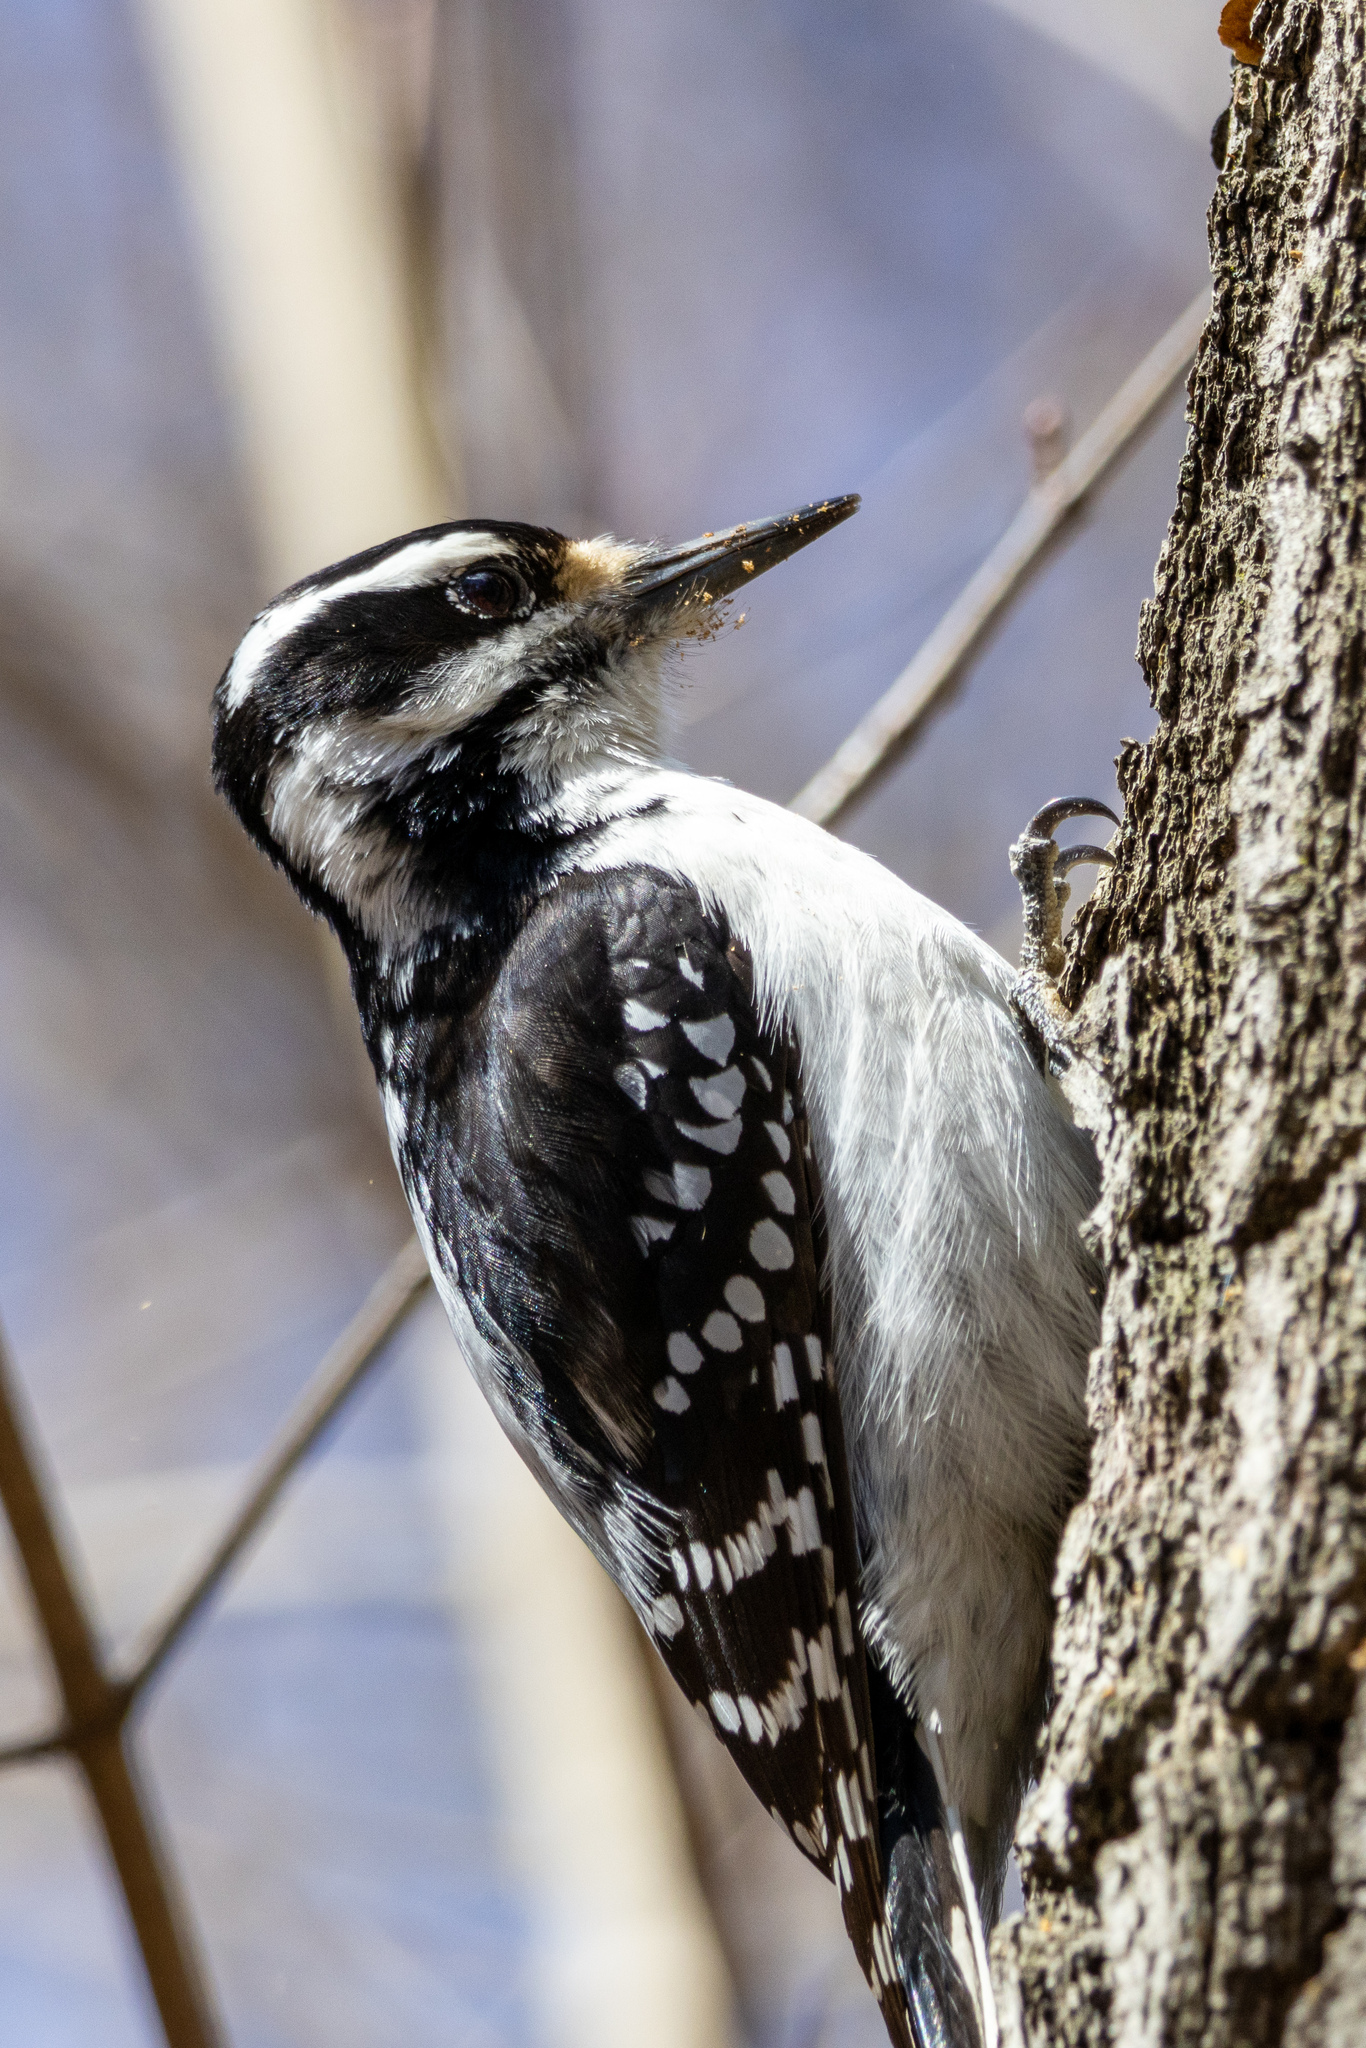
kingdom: Animalia
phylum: Chordata
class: Aves
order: Piciformes
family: Picidae
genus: Leuconotopicus
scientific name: Leuconotopicus villosus
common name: Hairy woodpecker
